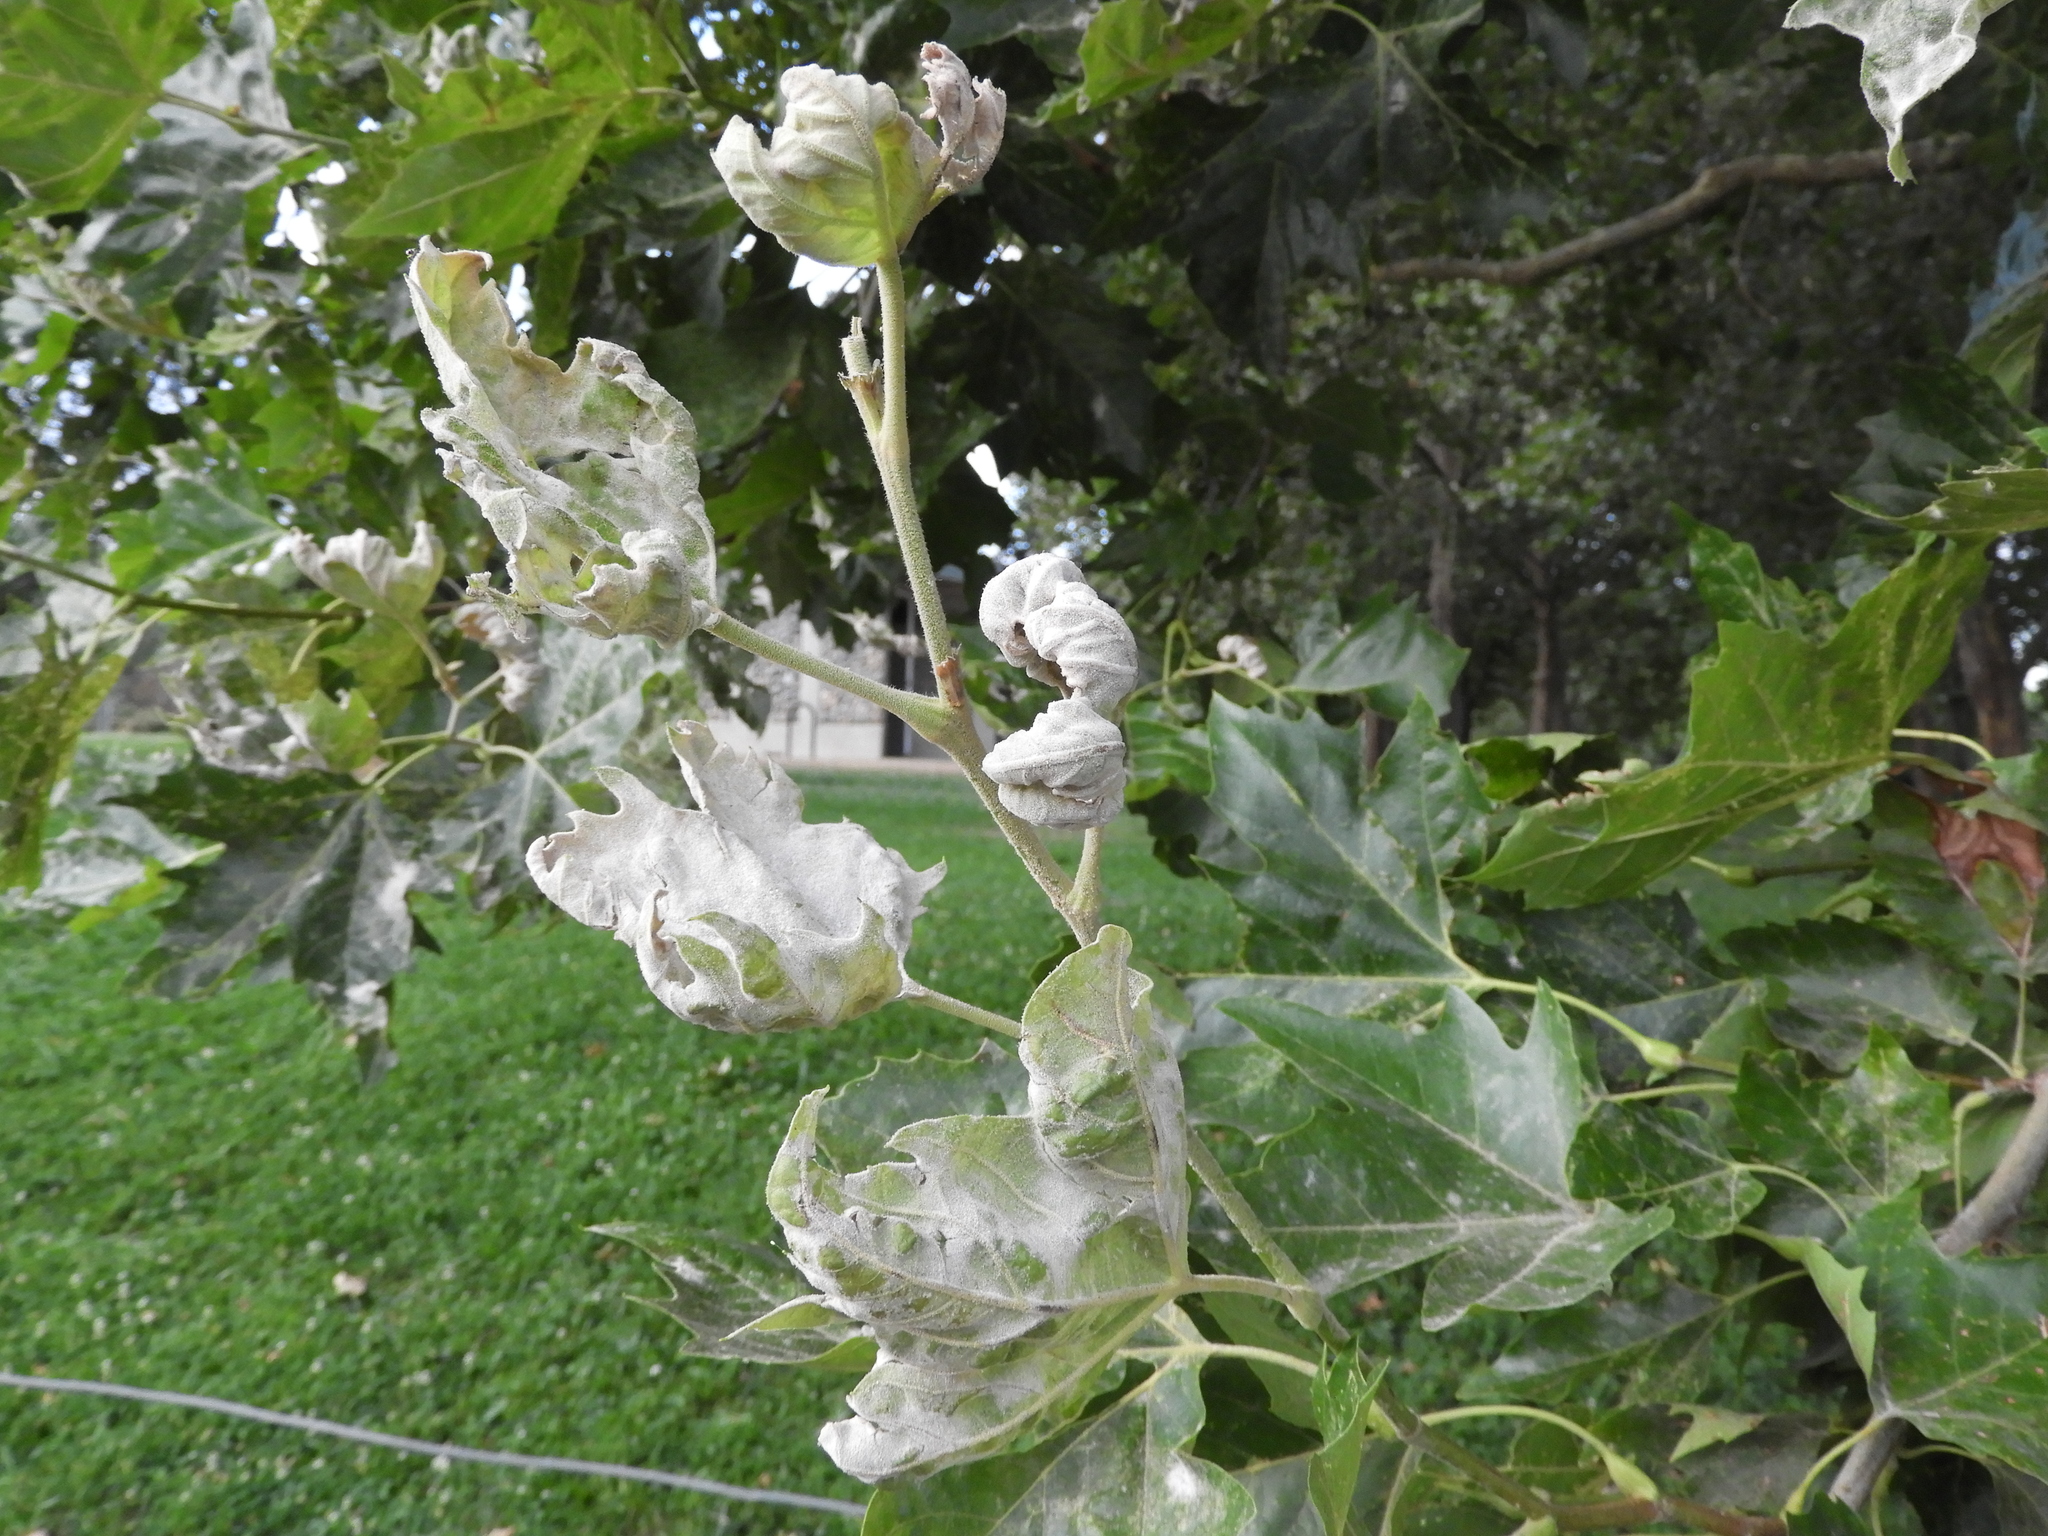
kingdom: Fungi
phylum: Ascomycota
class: Leotiomycetes
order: Helotiales
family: Erysiphaceae
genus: Erysiphe
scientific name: Erysiphe platani
